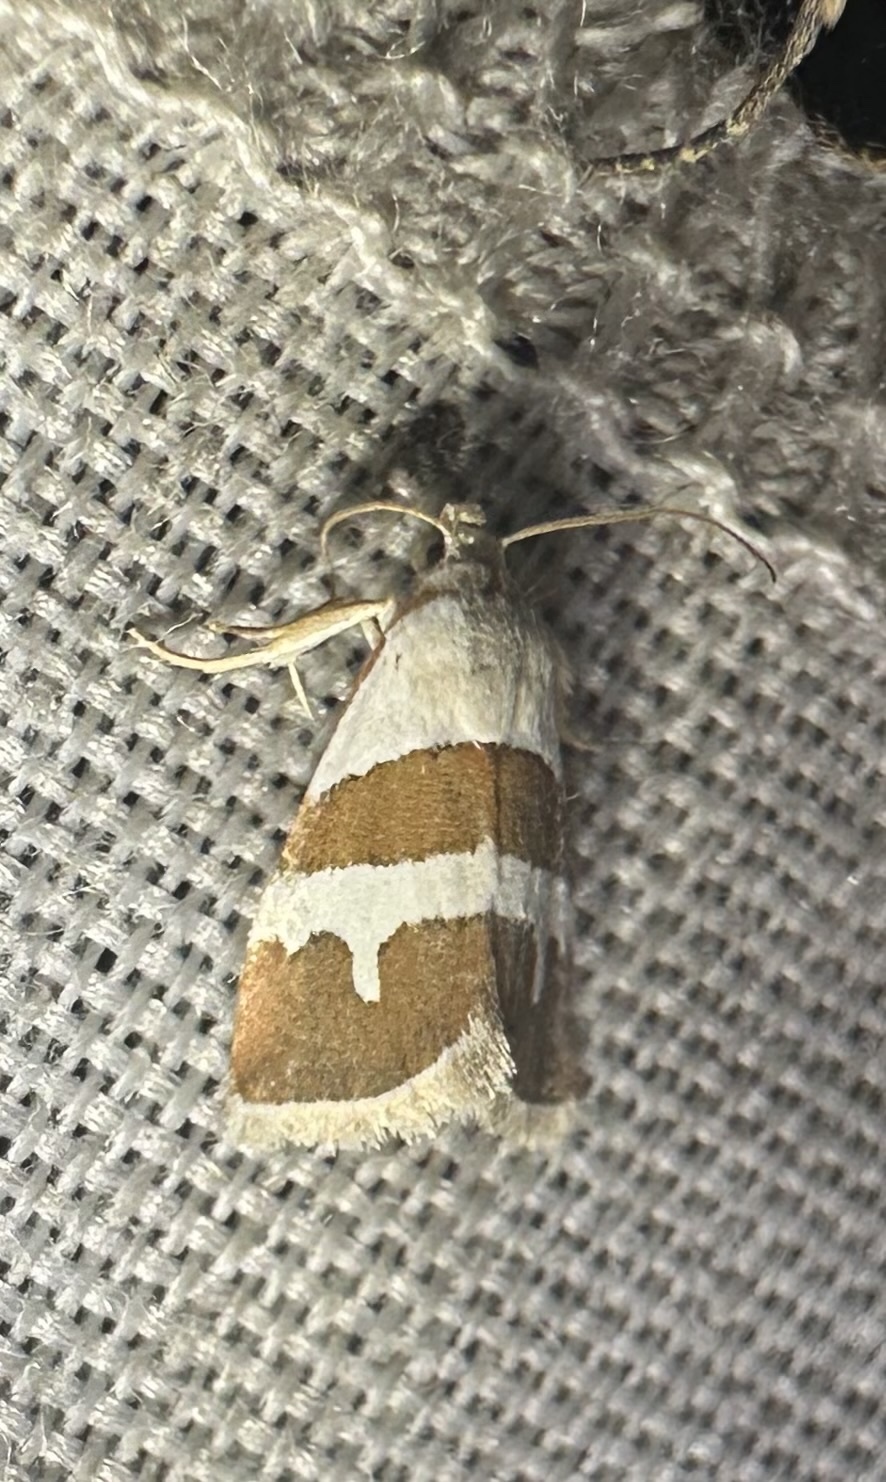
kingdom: Animalia
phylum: Arthropoda
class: Insecta
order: Lepidoptera
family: Noctuidae
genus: Eublemma
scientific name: Eublemma alexi
